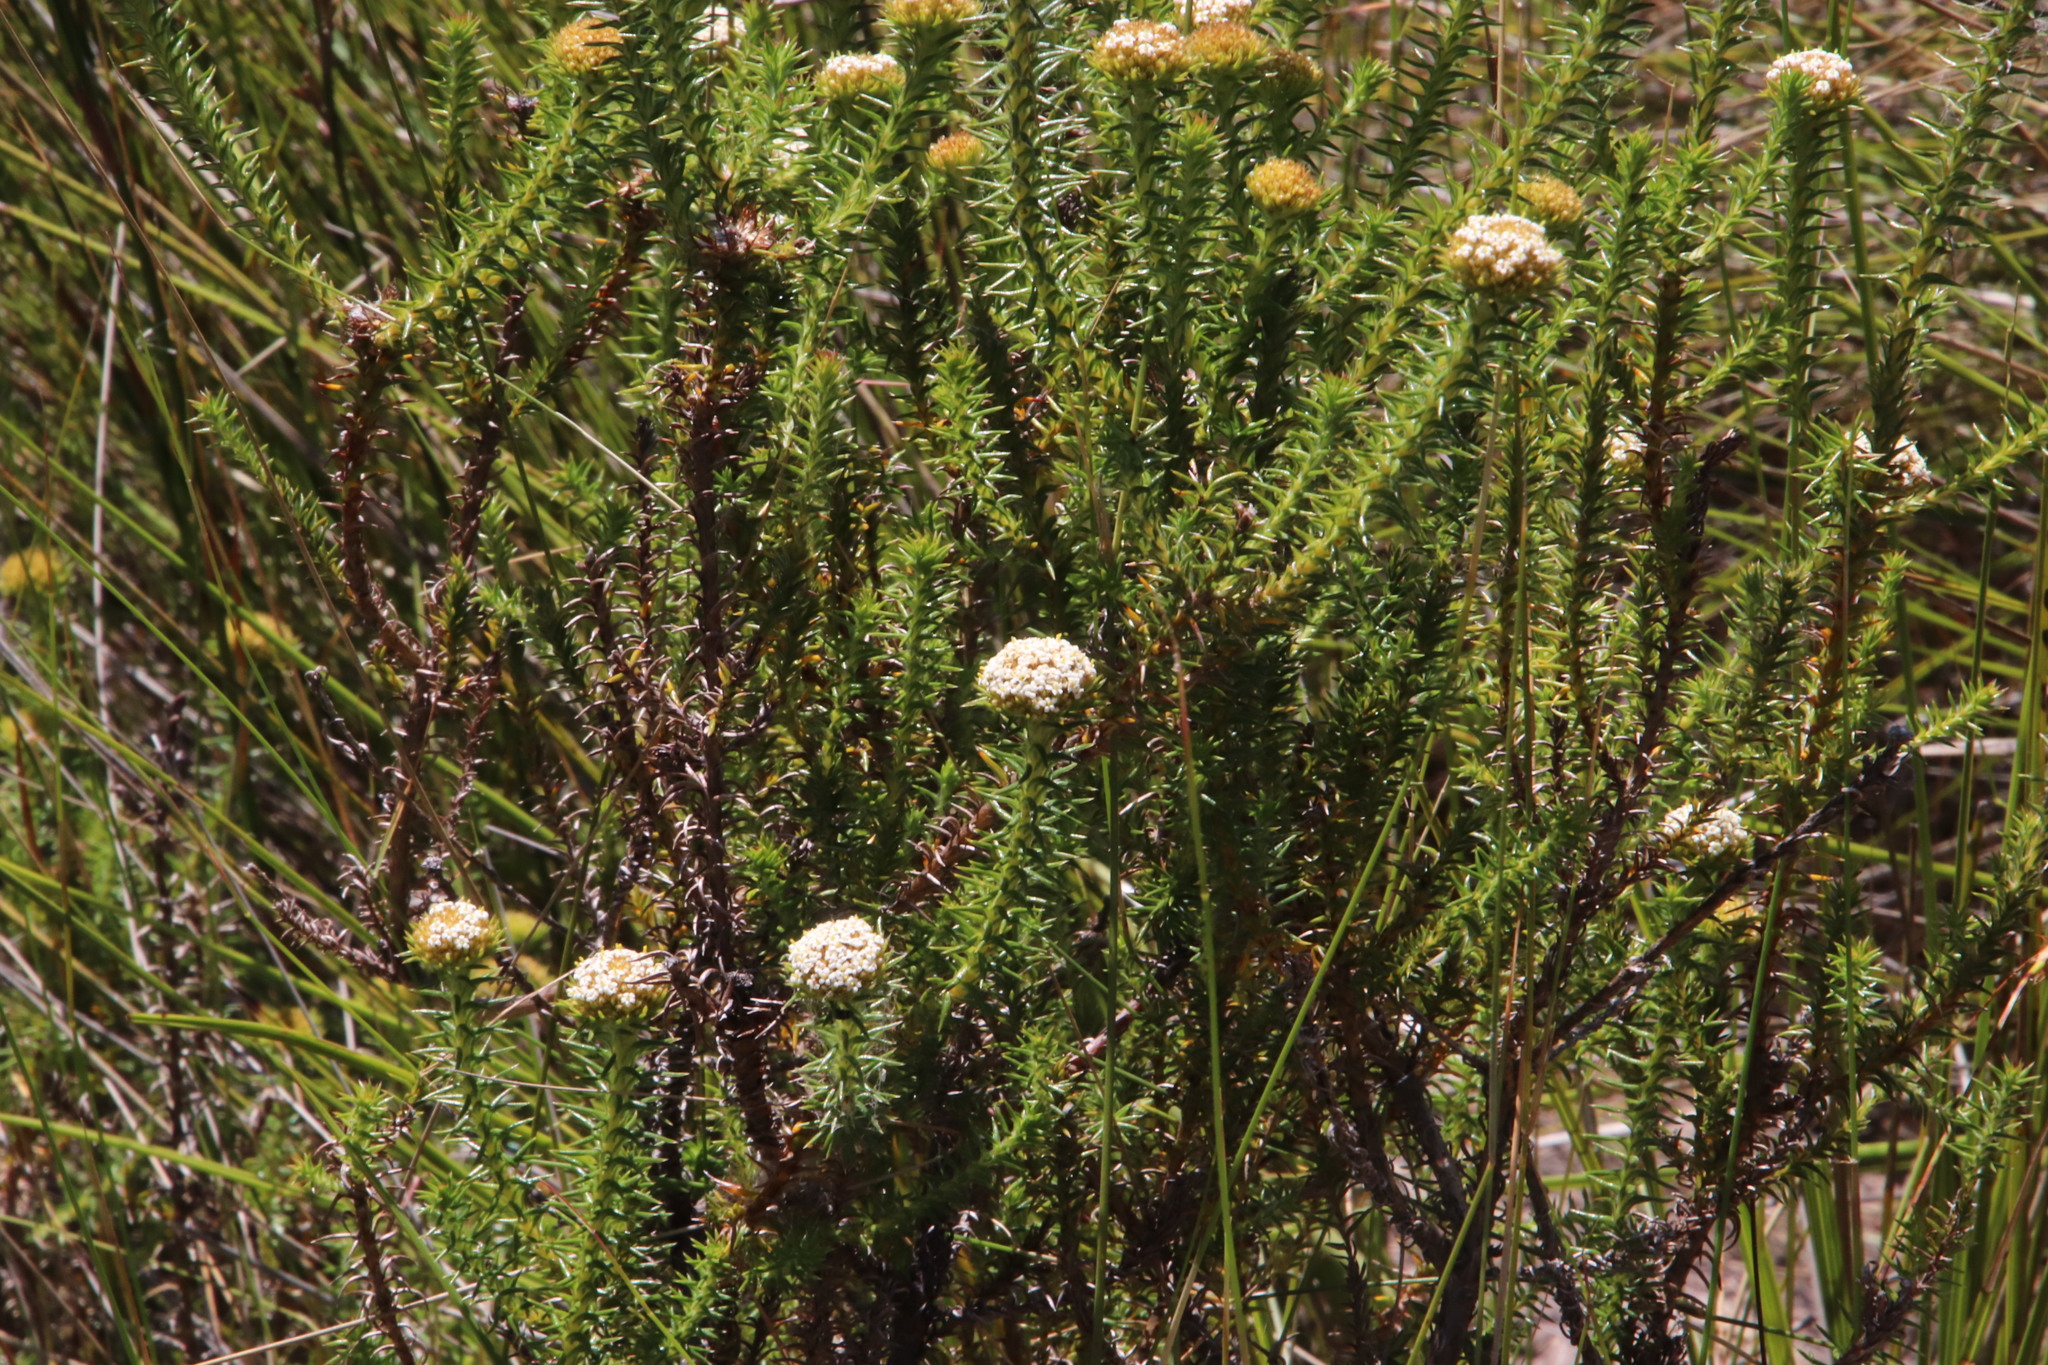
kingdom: Plantae
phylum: Tracheophyta
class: Magnoliopsida
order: Asterales
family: Asteraceae
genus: Stoebe
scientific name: Stoebe aethiopica
